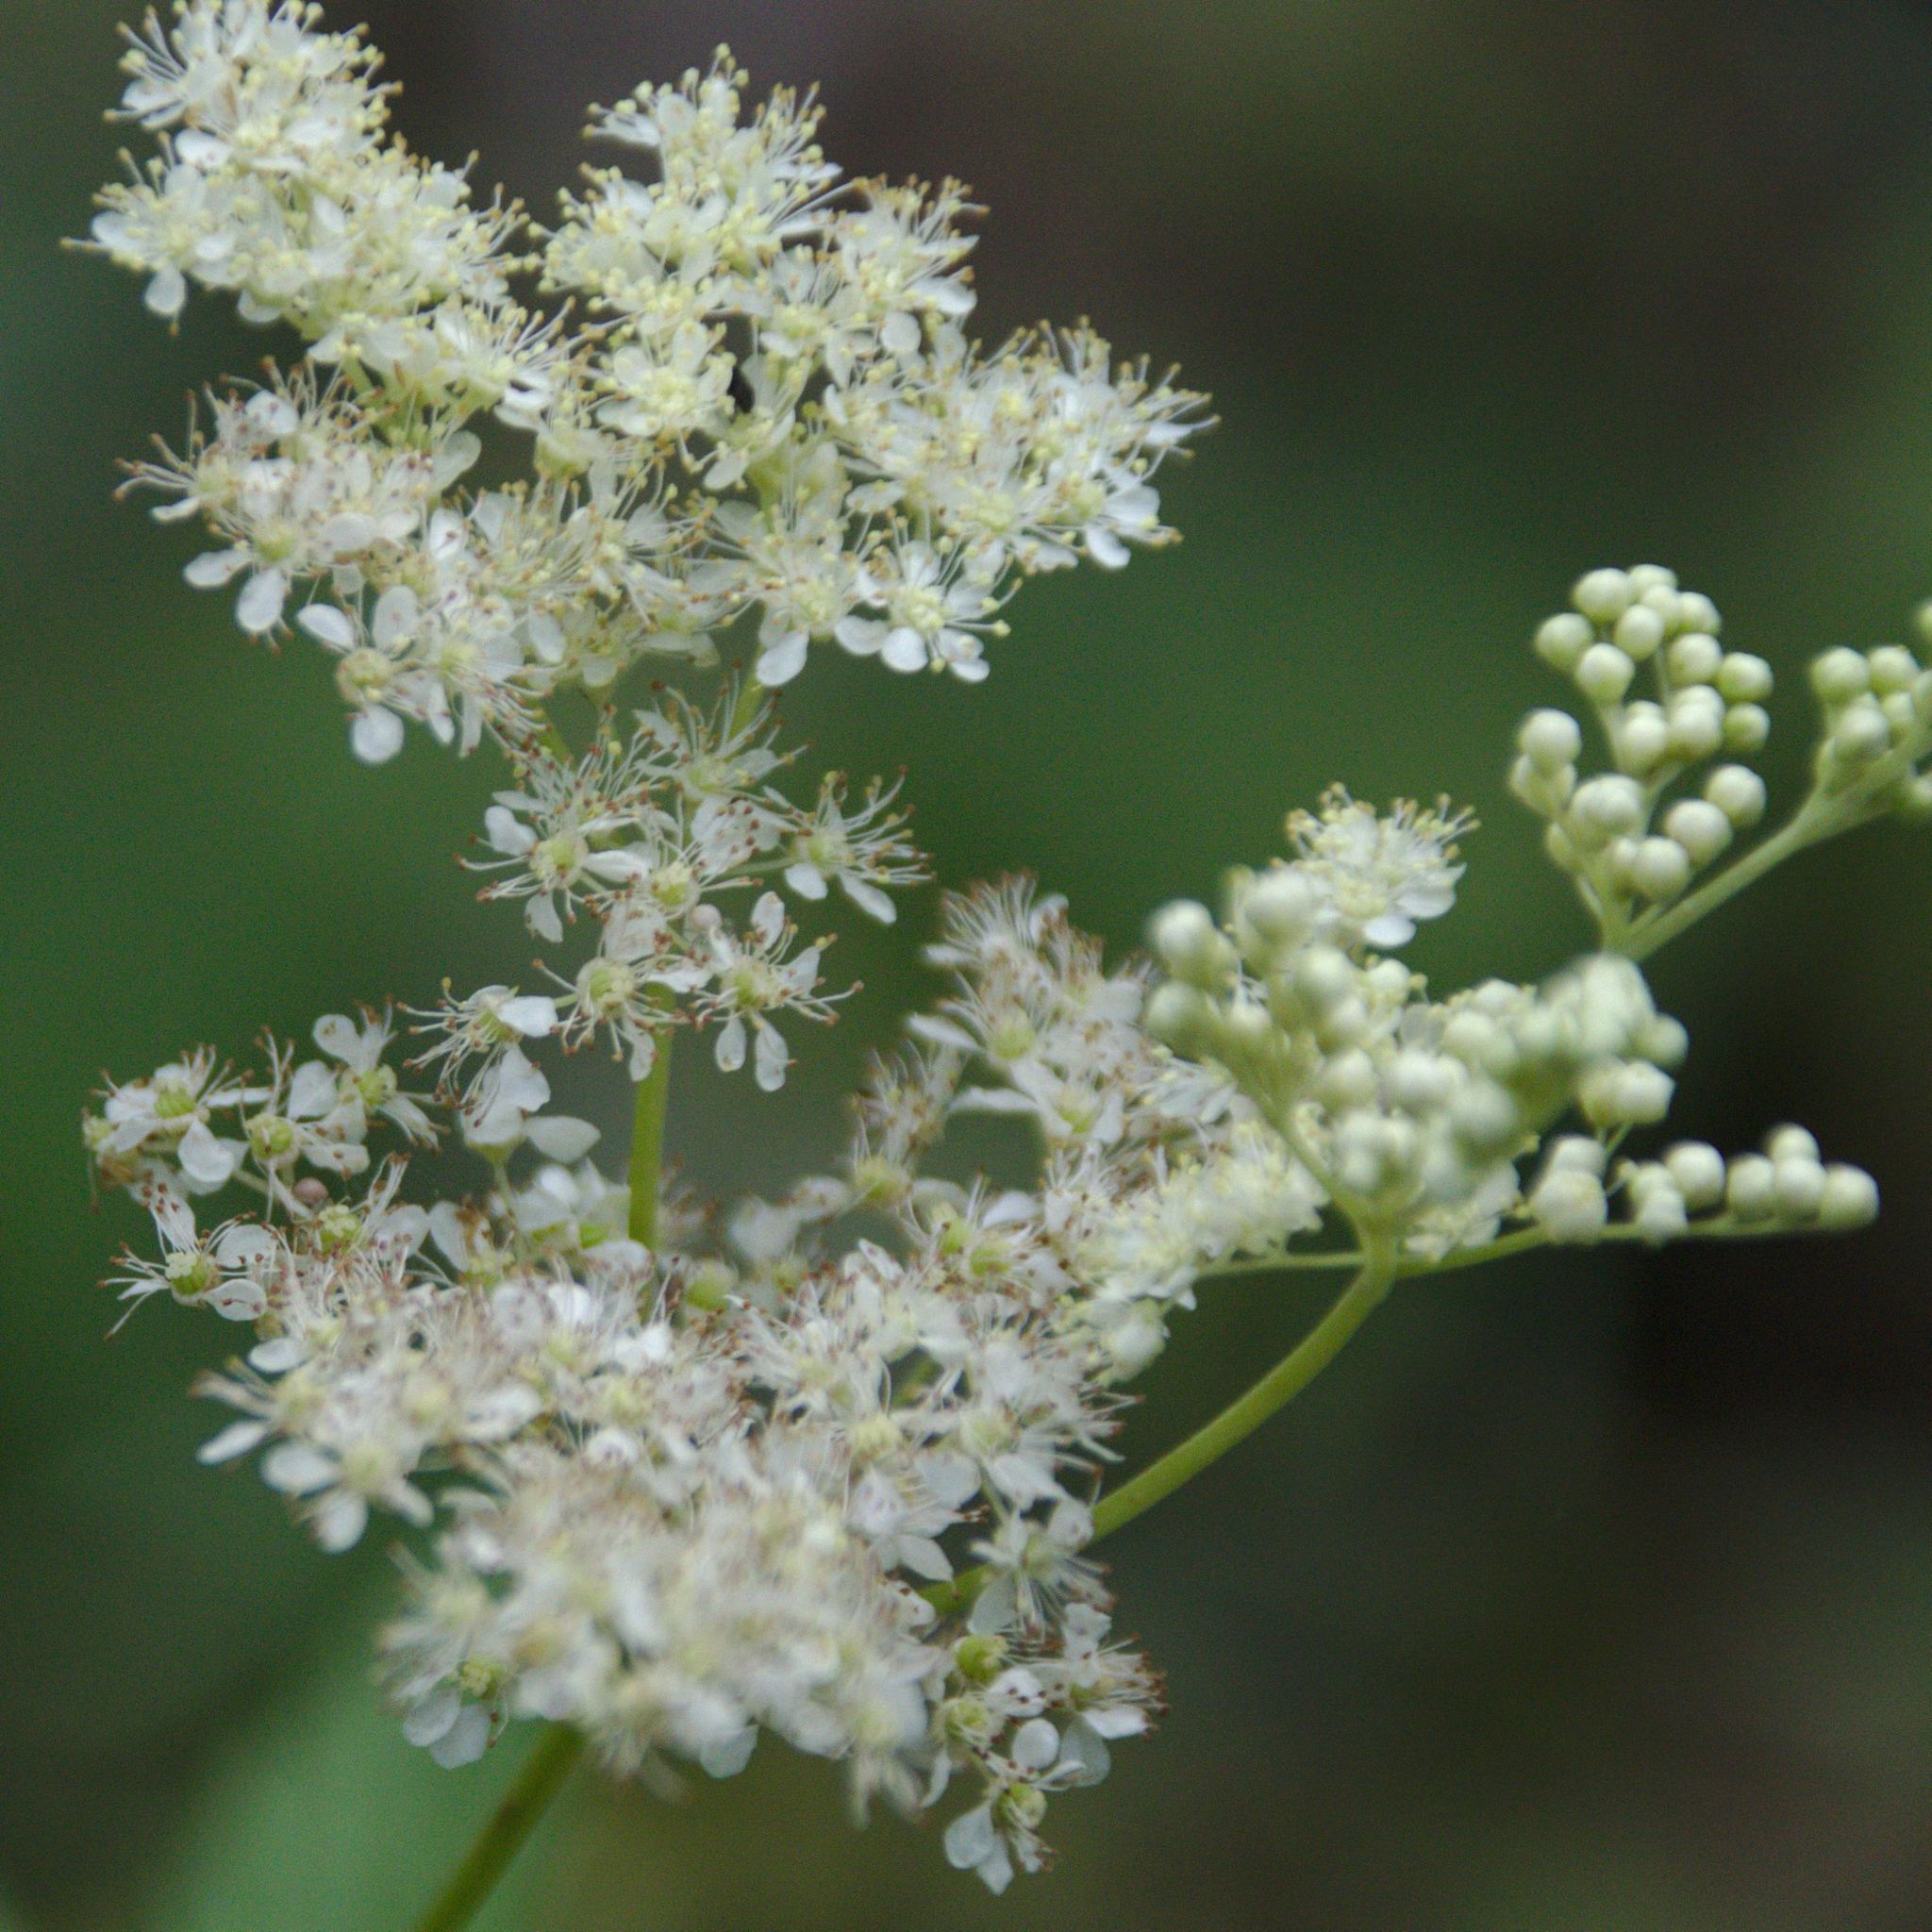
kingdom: Plantae
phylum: Tracheophyta
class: Magnoliopsida
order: Rosales
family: Rosaceae
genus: Filipendula
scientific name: Filipendula ulmaria
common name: Meadowsweet
